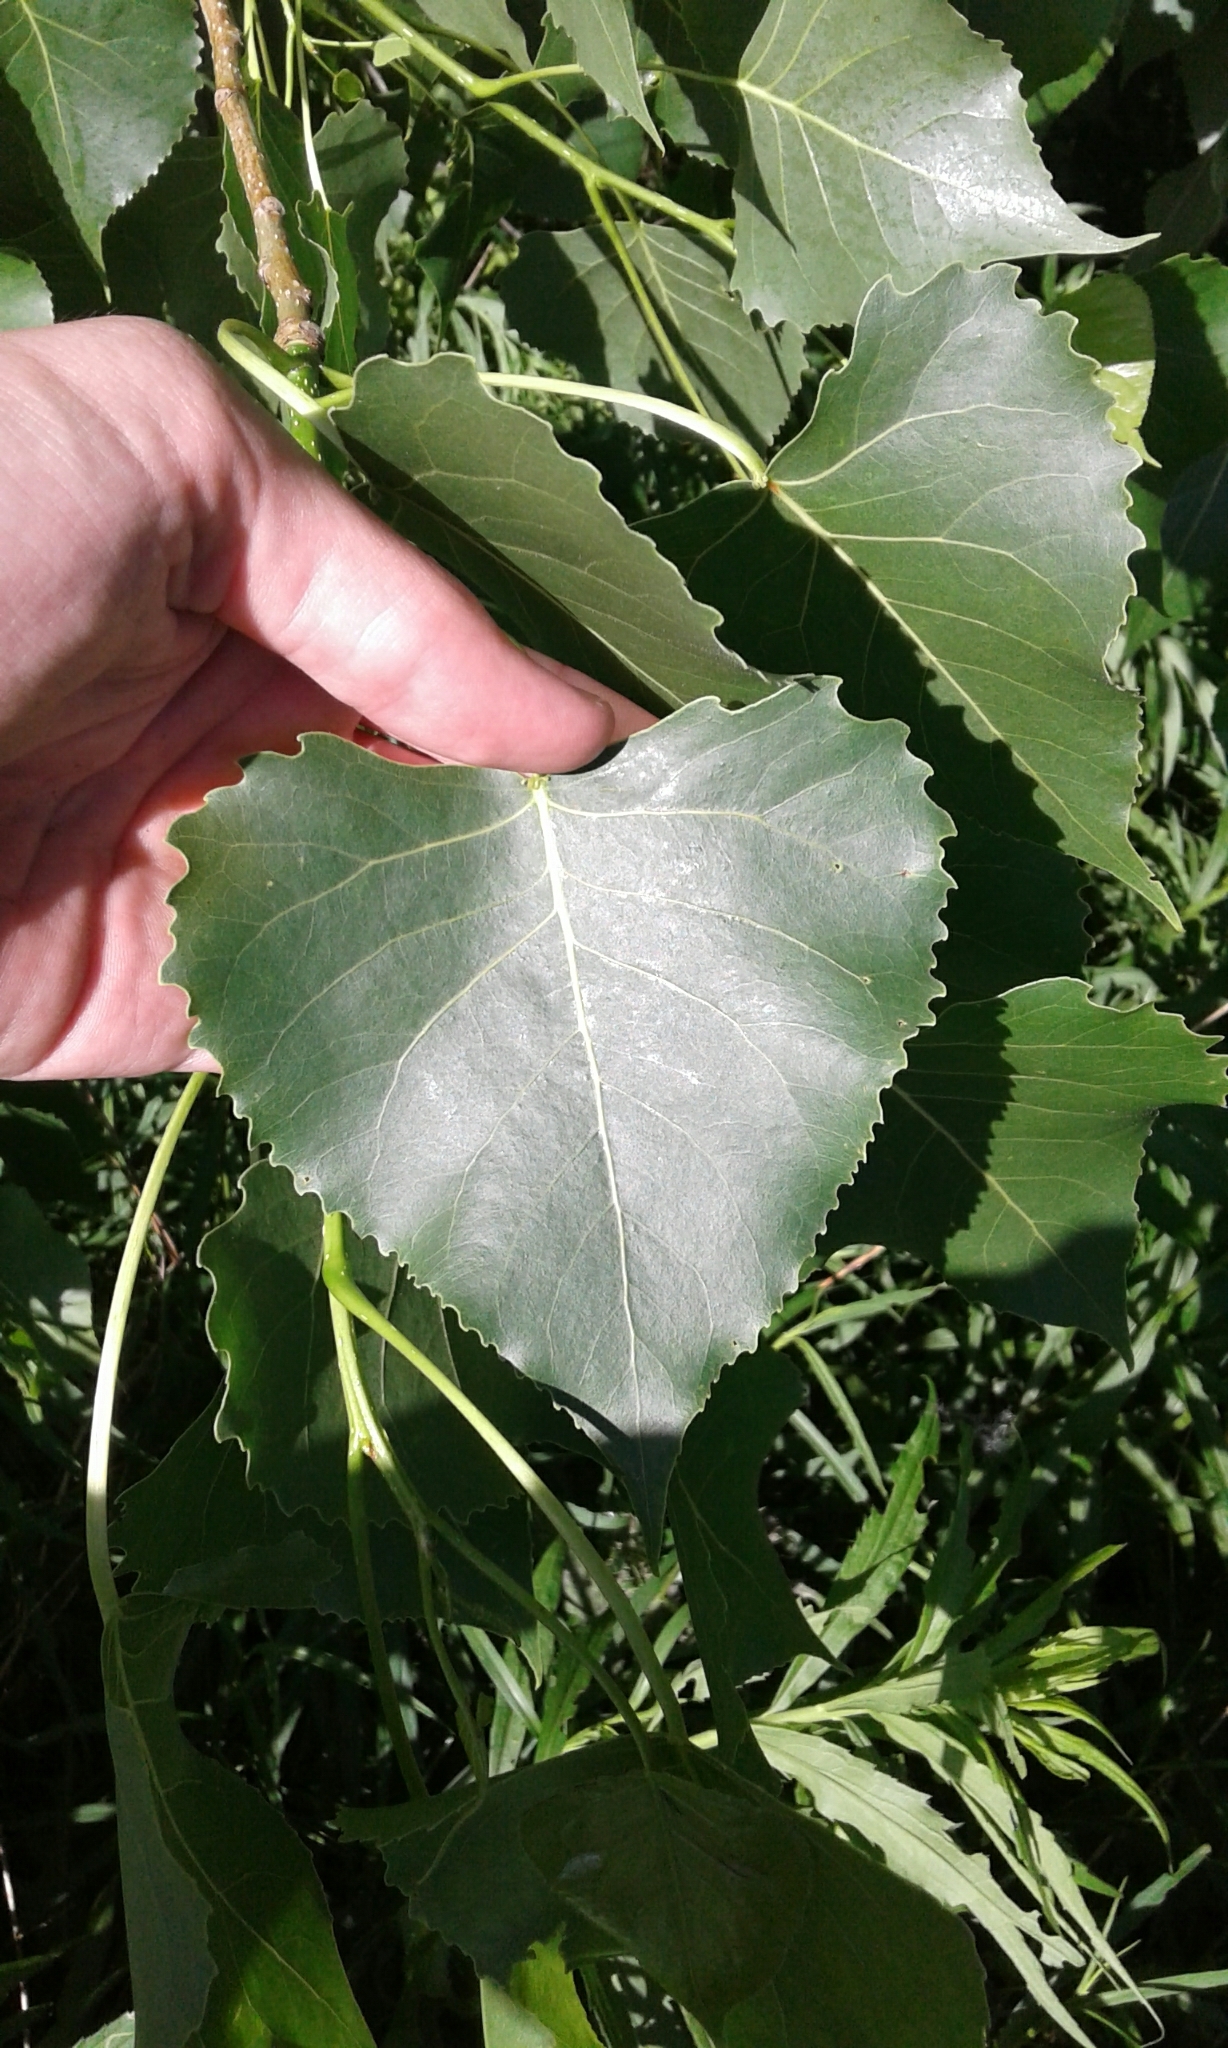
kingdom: Plantae
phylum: Tracheophyta
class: Magnoliopsida
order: Malpighiales
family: Salicaceae
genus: Populus
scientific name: Populus deltoides
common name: Eastern cottonwood
